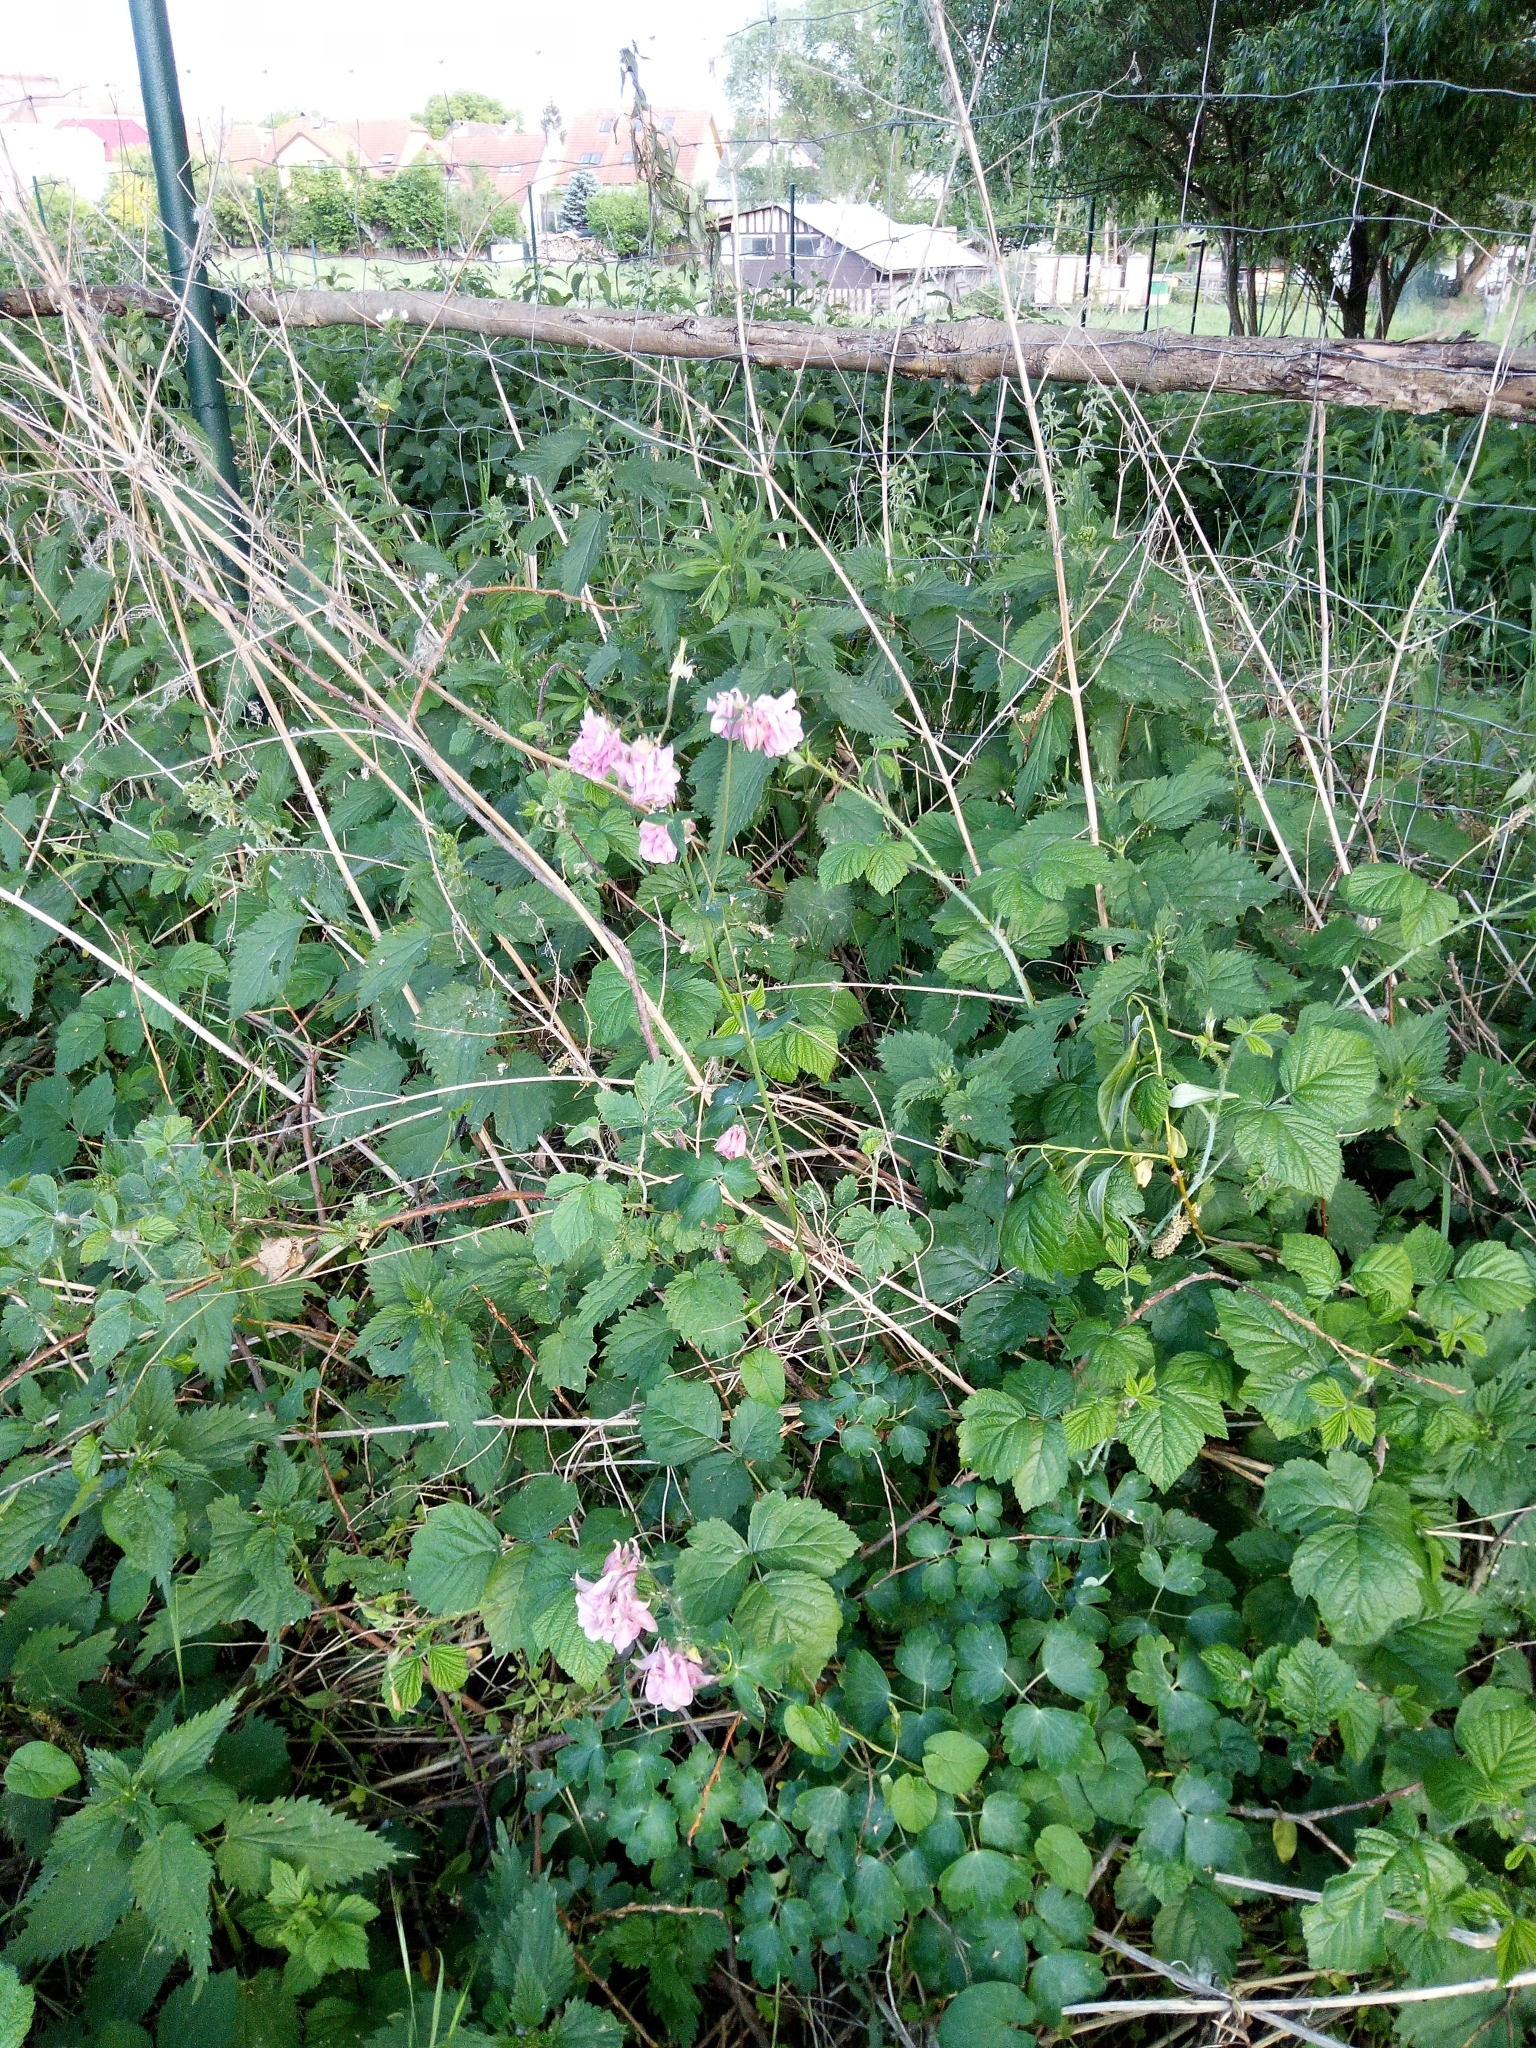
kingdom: Plantae
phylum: Tracheophyta
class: Magnoliopsida
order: Ranunculales
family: Ranunculaceae
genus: Aquilegia
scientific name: Aquilegia vulgaris
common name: Columbine
